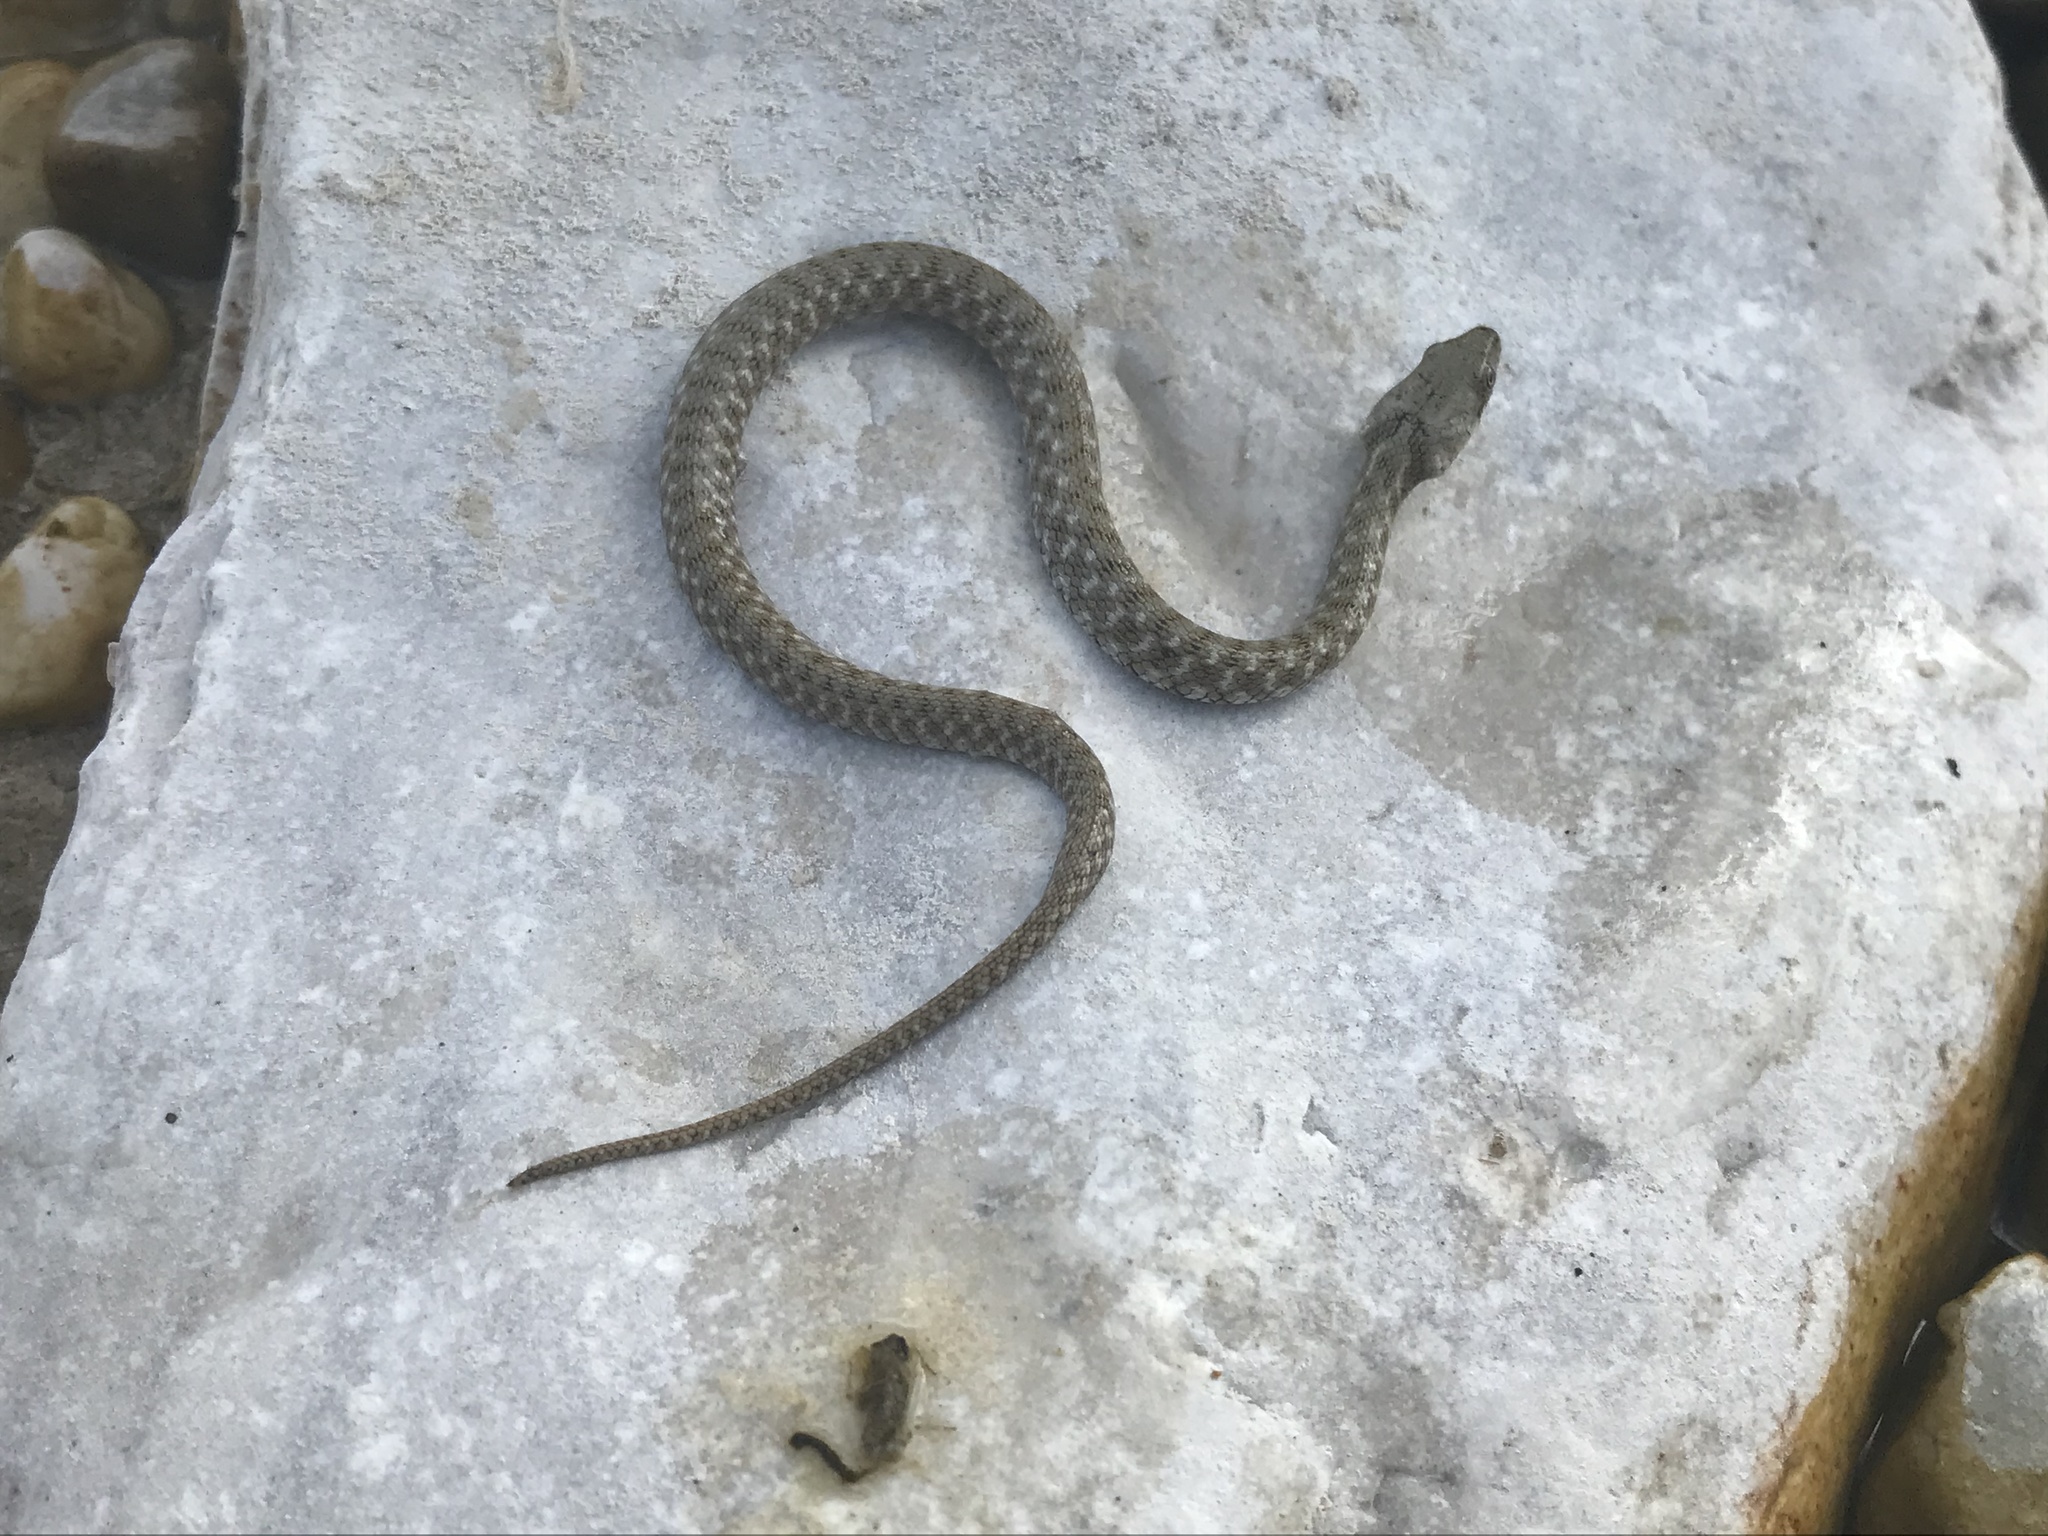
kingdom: Animalia
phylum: Chordata
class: Squamata
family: Colubridae
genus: Natrix
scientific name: Natrix tessellata
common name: Dice snake
